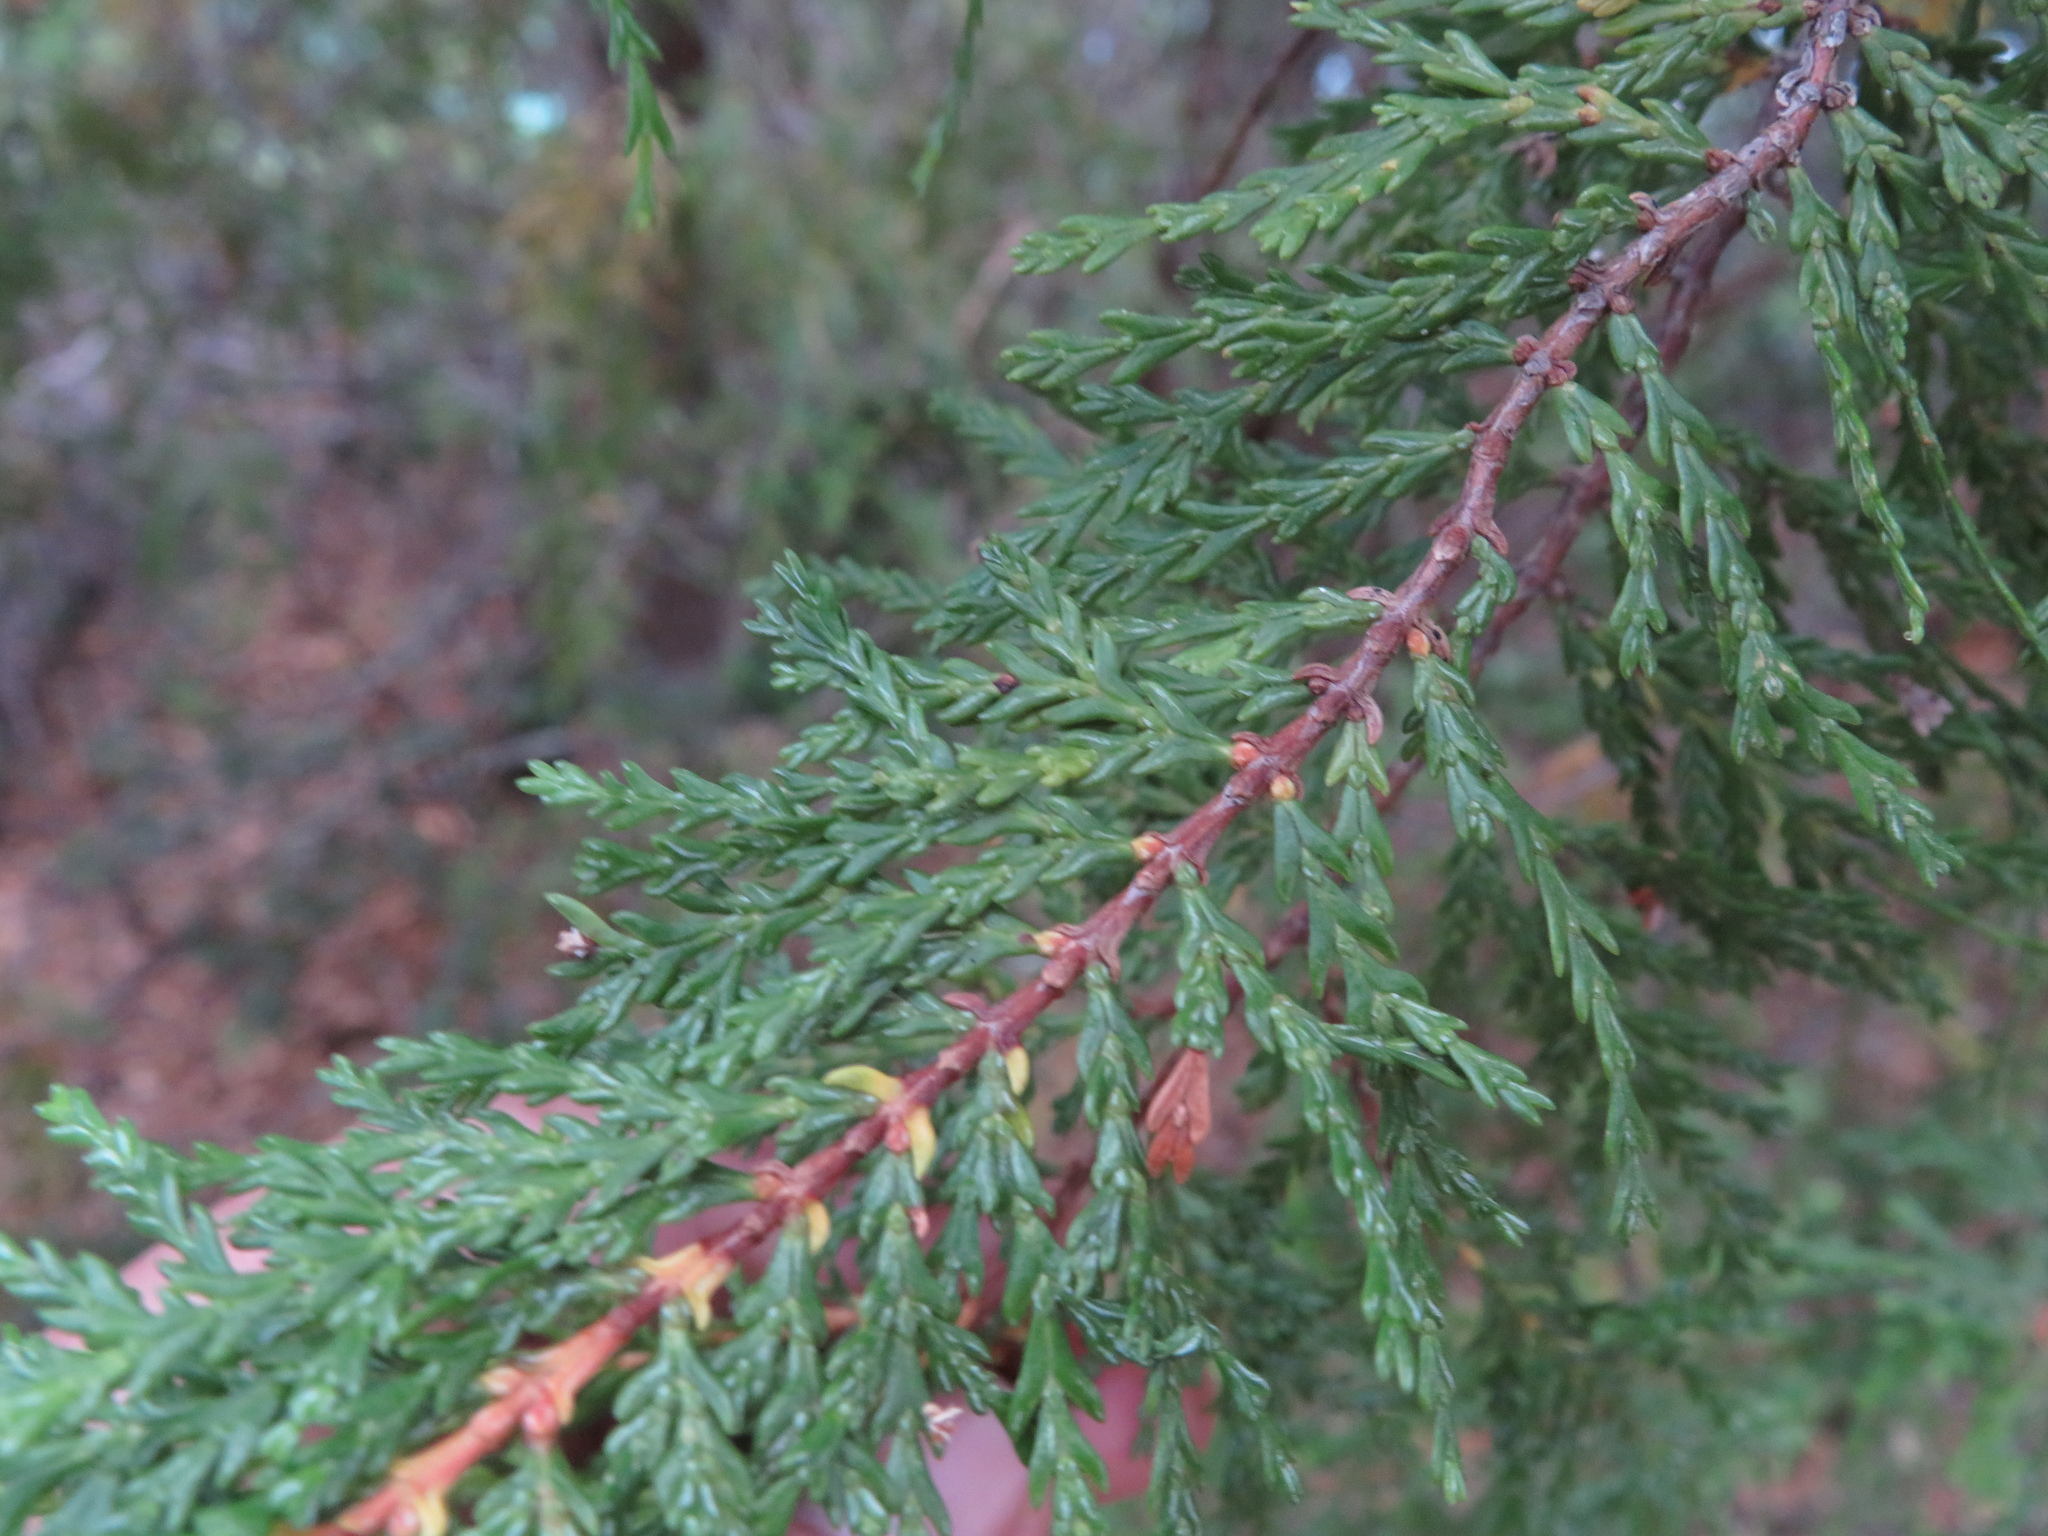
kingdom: Plantae
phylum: Tracheophyta
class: Pinopsida
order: Pinales
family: Cupressaceae
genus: Austrocedrus
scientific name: Austrocedrus chilensis
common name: Chilean incense-cedar
